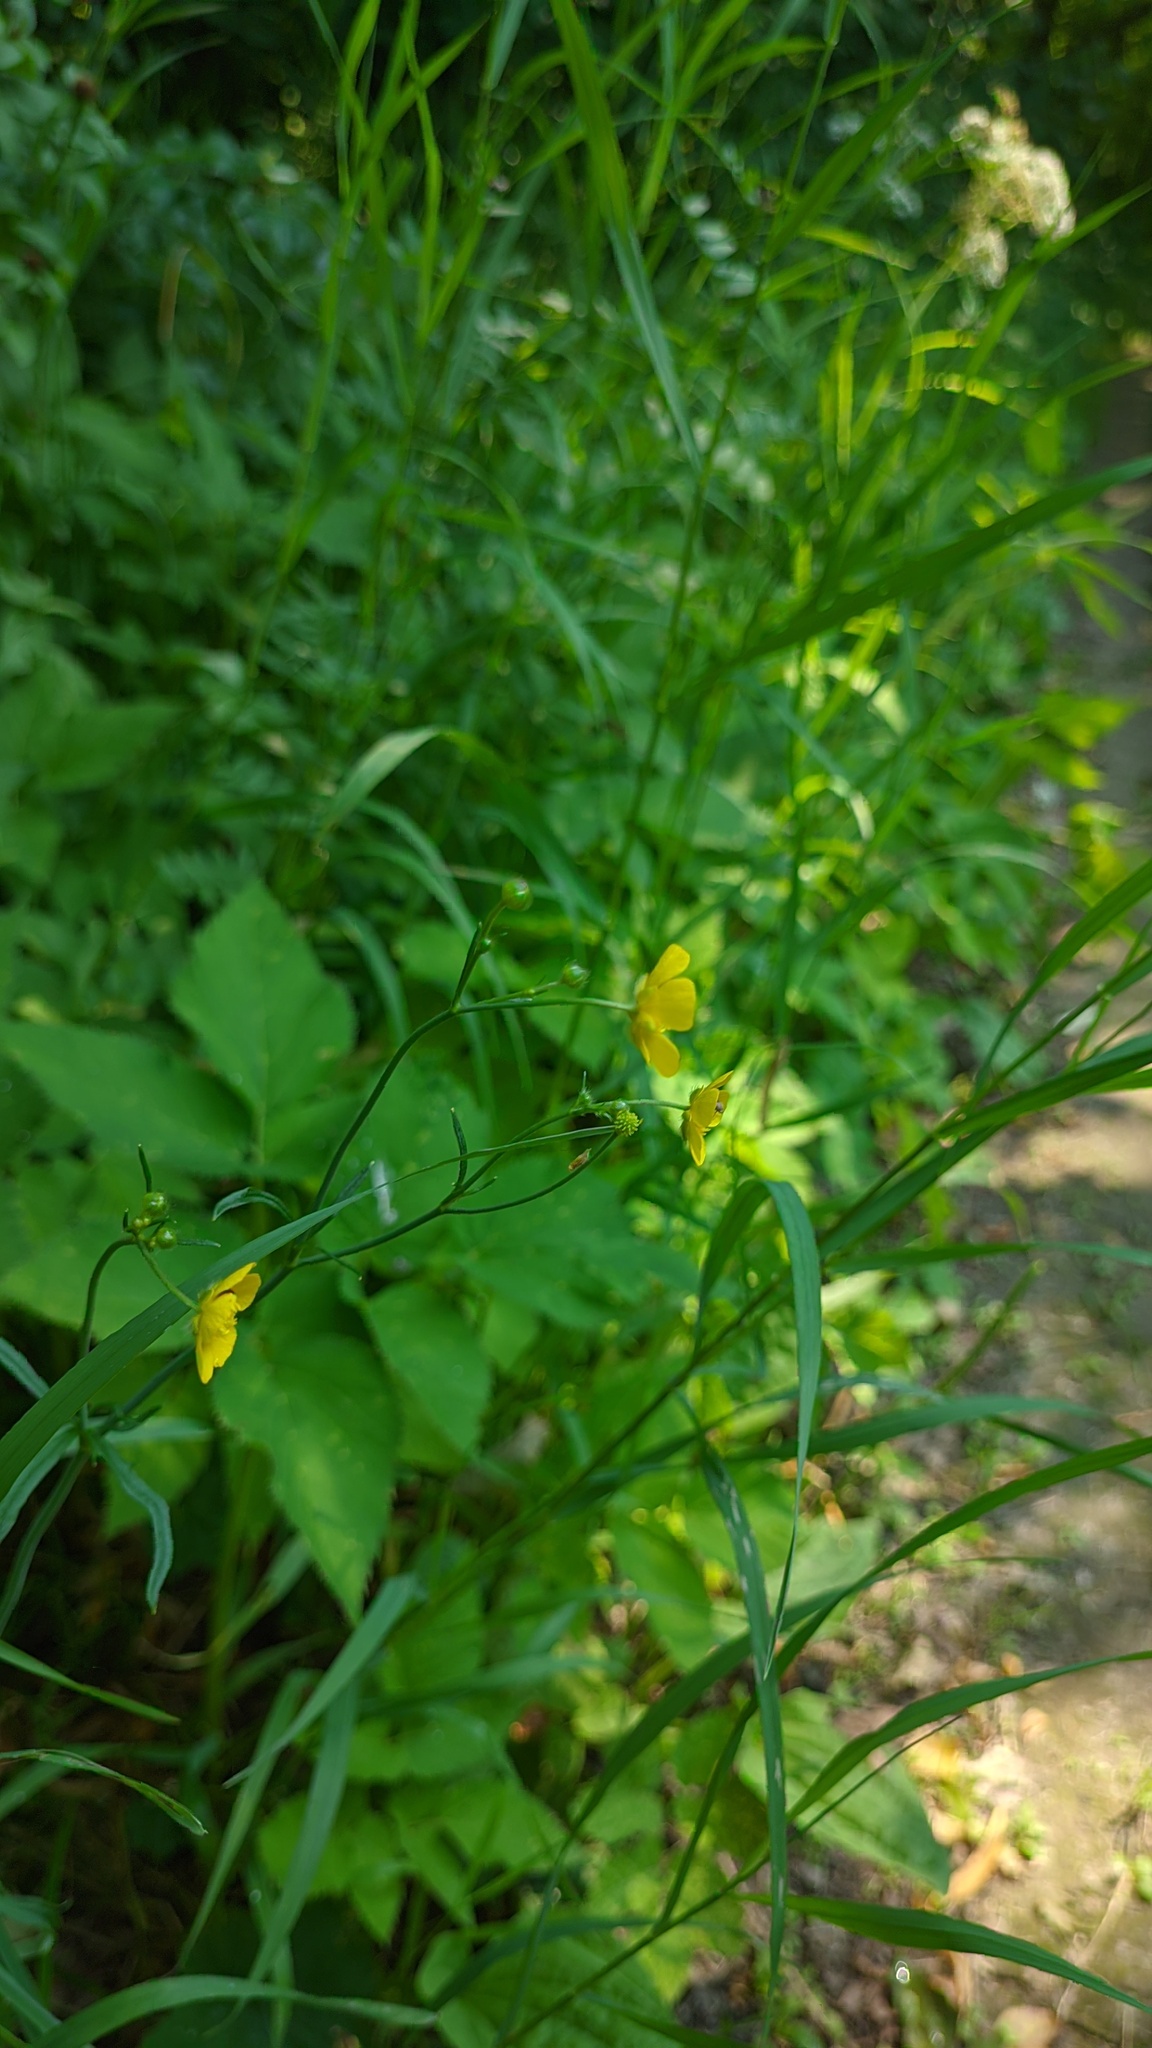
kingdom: Plantae
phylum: Tracheophyta
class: Magnoliopsida
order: Ranunculales
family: Ranunculaceae
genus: Ranunculus
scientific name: Ranunculus acris
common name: Meadow buttercup
